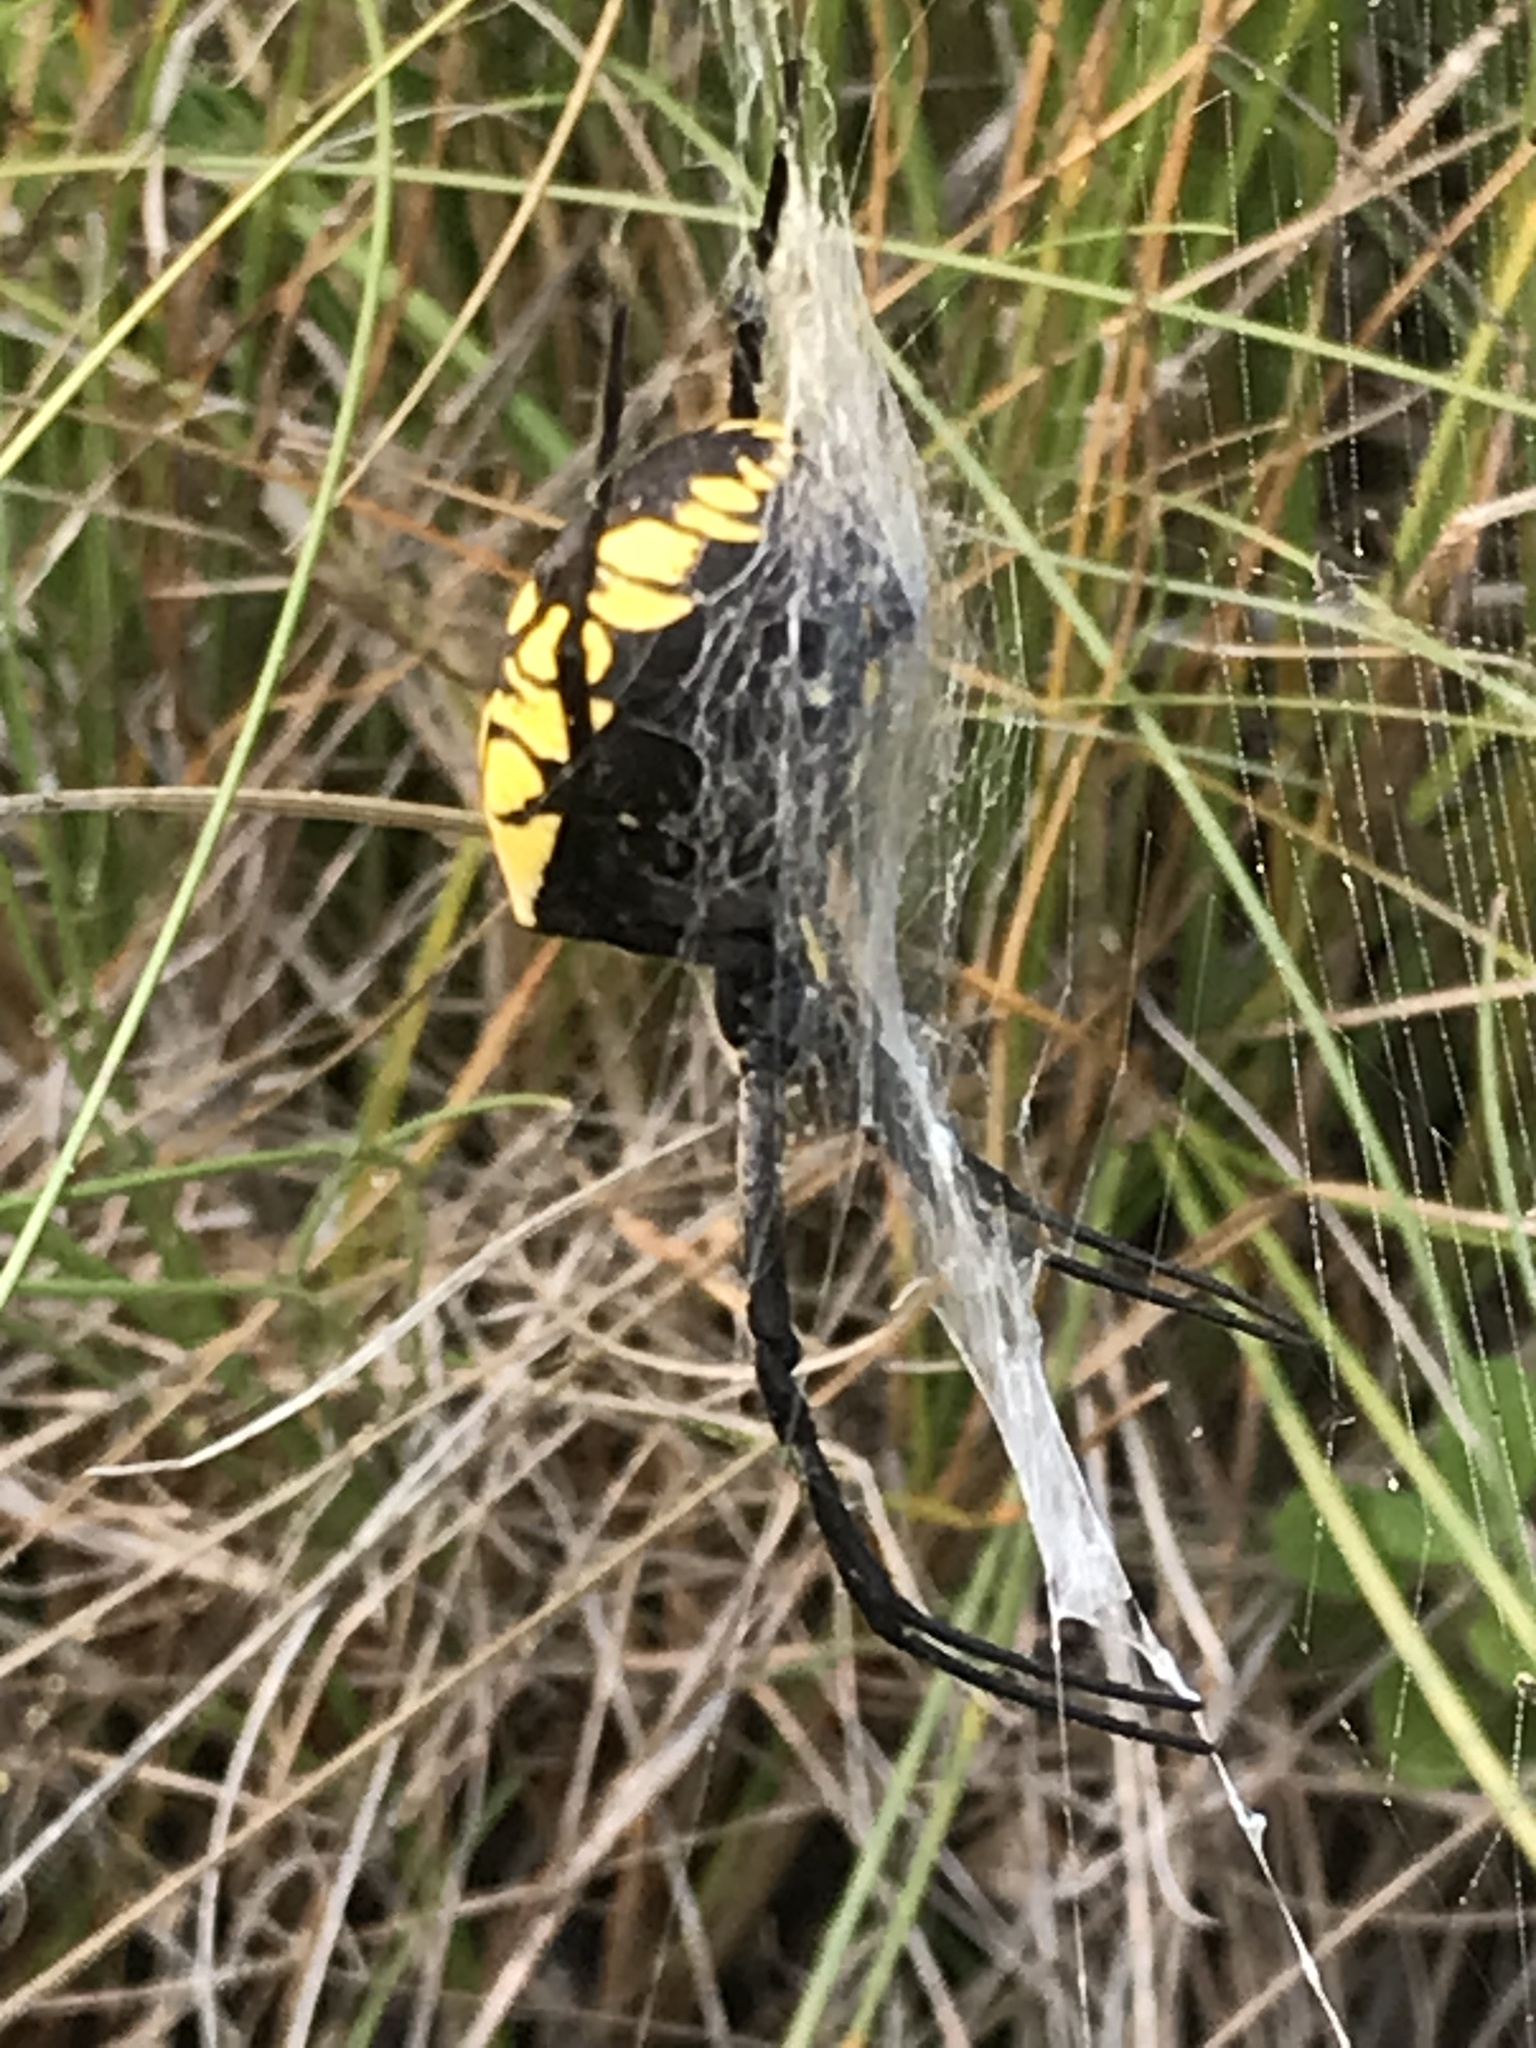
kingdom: Animalia
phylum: Arthropoda
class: Arachnida
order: Araneae
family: Araneidae
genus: Argiope
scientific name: Argiope aurantia
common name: Orb weavers
